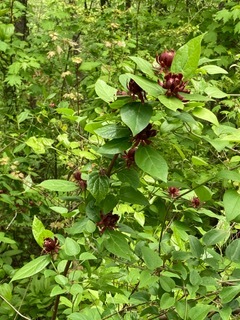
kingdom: Plantae
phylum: Tracheophyta
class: Magnoliopsida
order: Laurales
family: Calycanthaceae
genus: Calycanthus
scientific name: Calycanthus floridus
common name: Carolina-allspice
